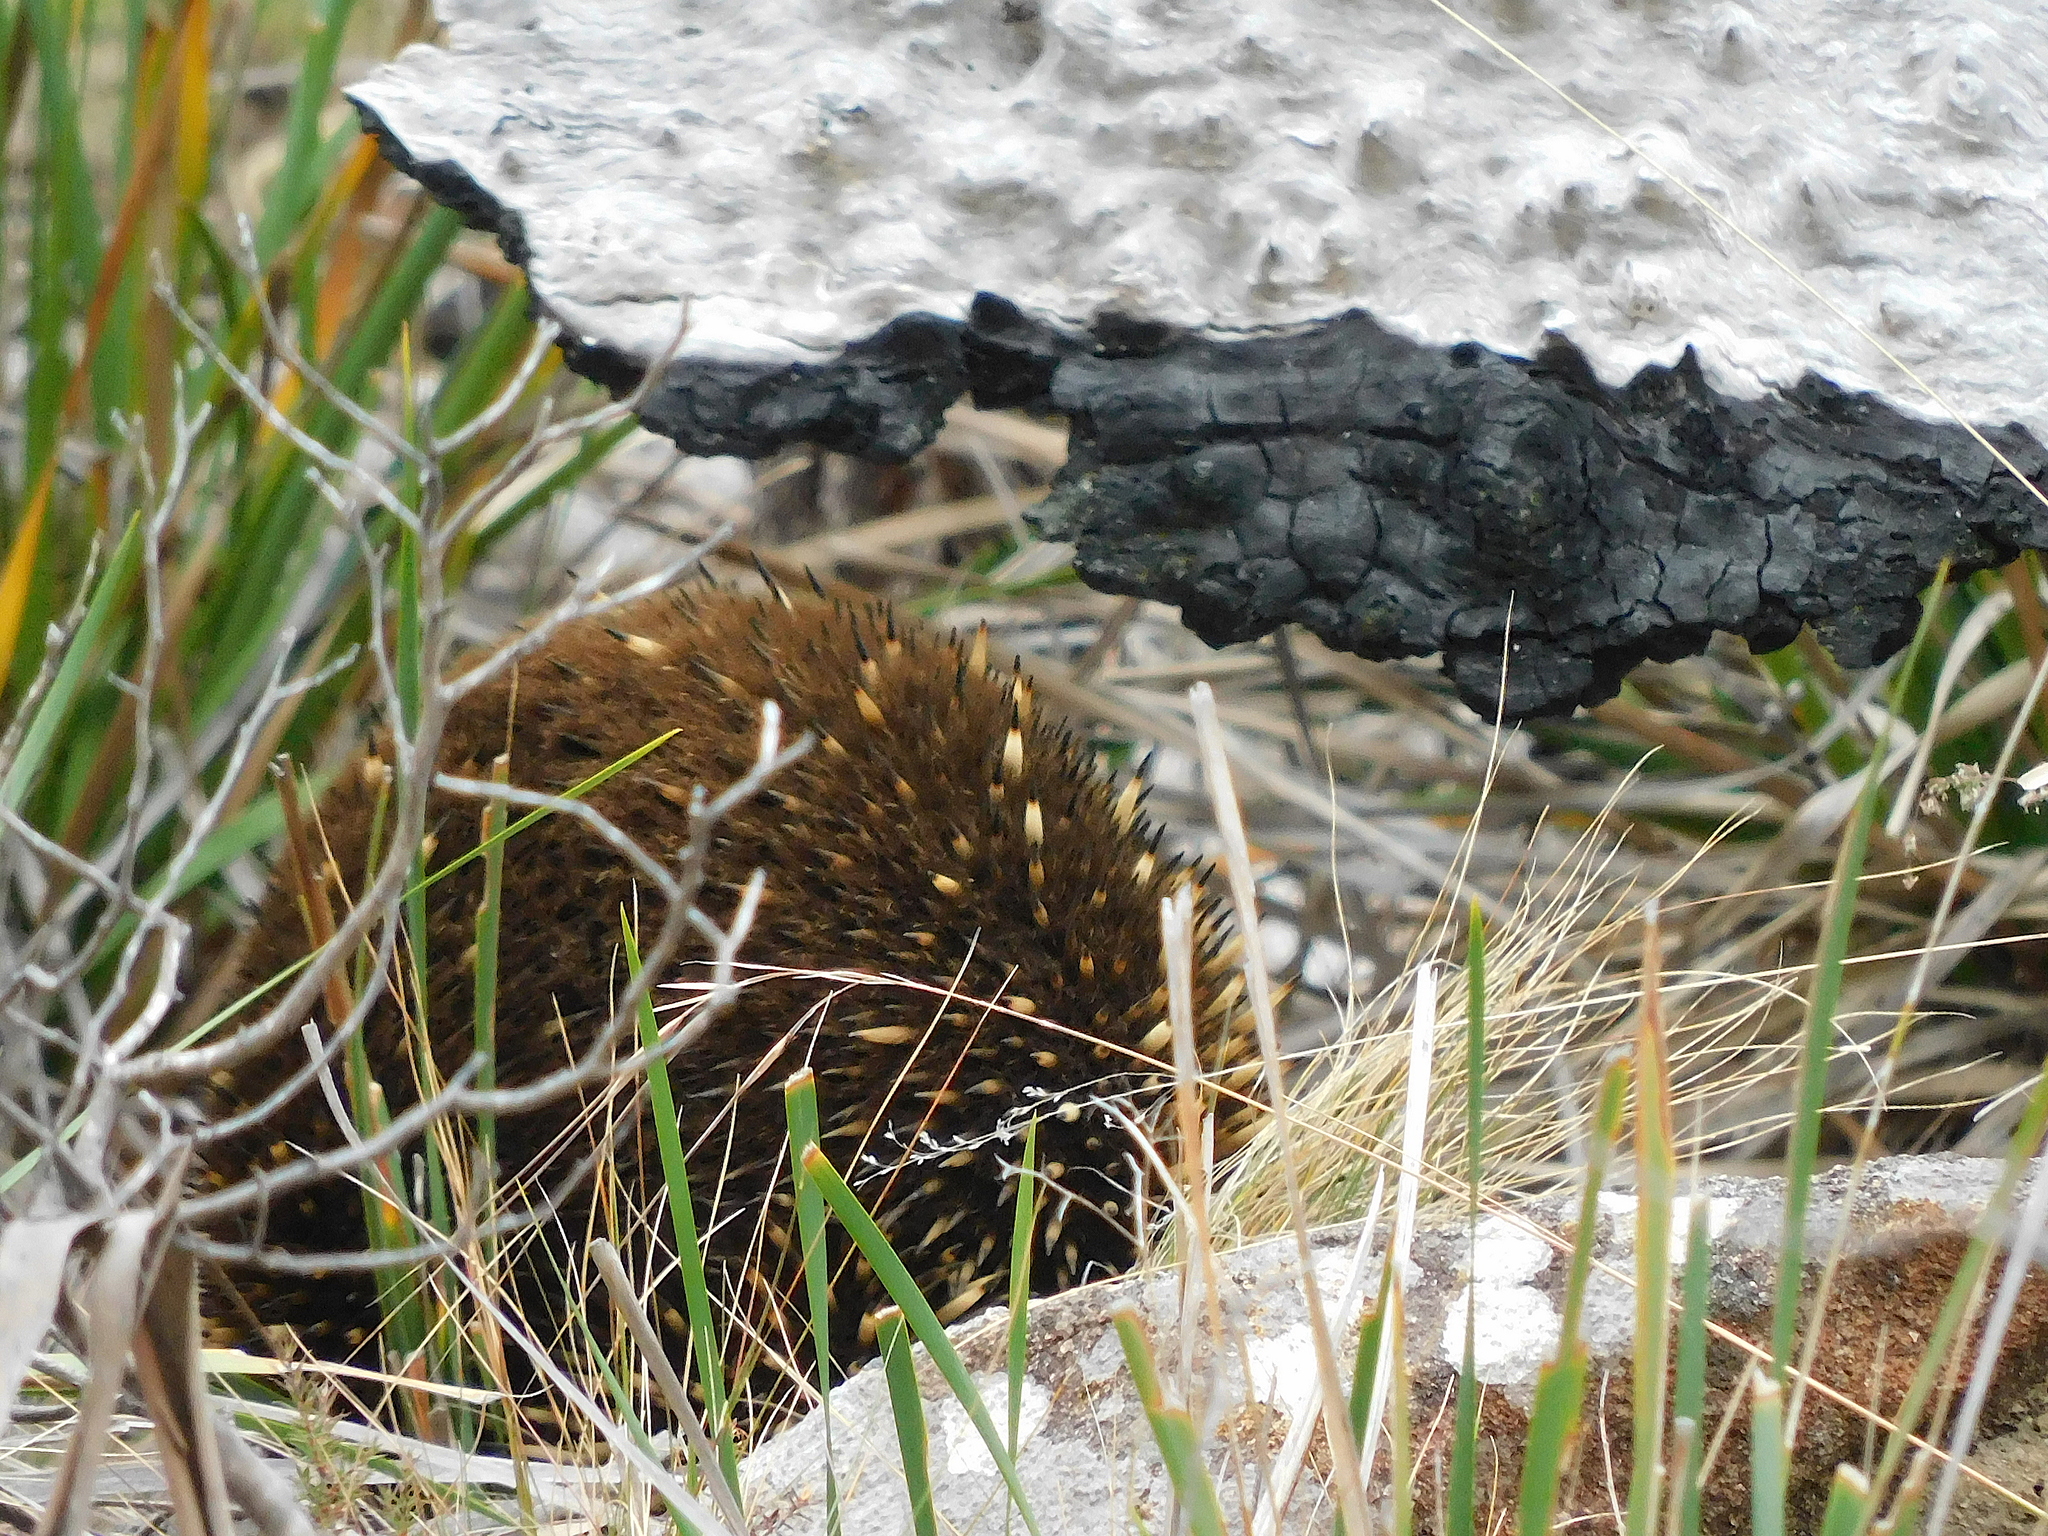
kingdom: Animalia
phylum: Chordata
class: Mammalia
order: Monotremata
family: Tachyglossidae
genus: Tachyglossus
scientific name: Tachyglossus aculeatus
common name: Short-beaked echidna
